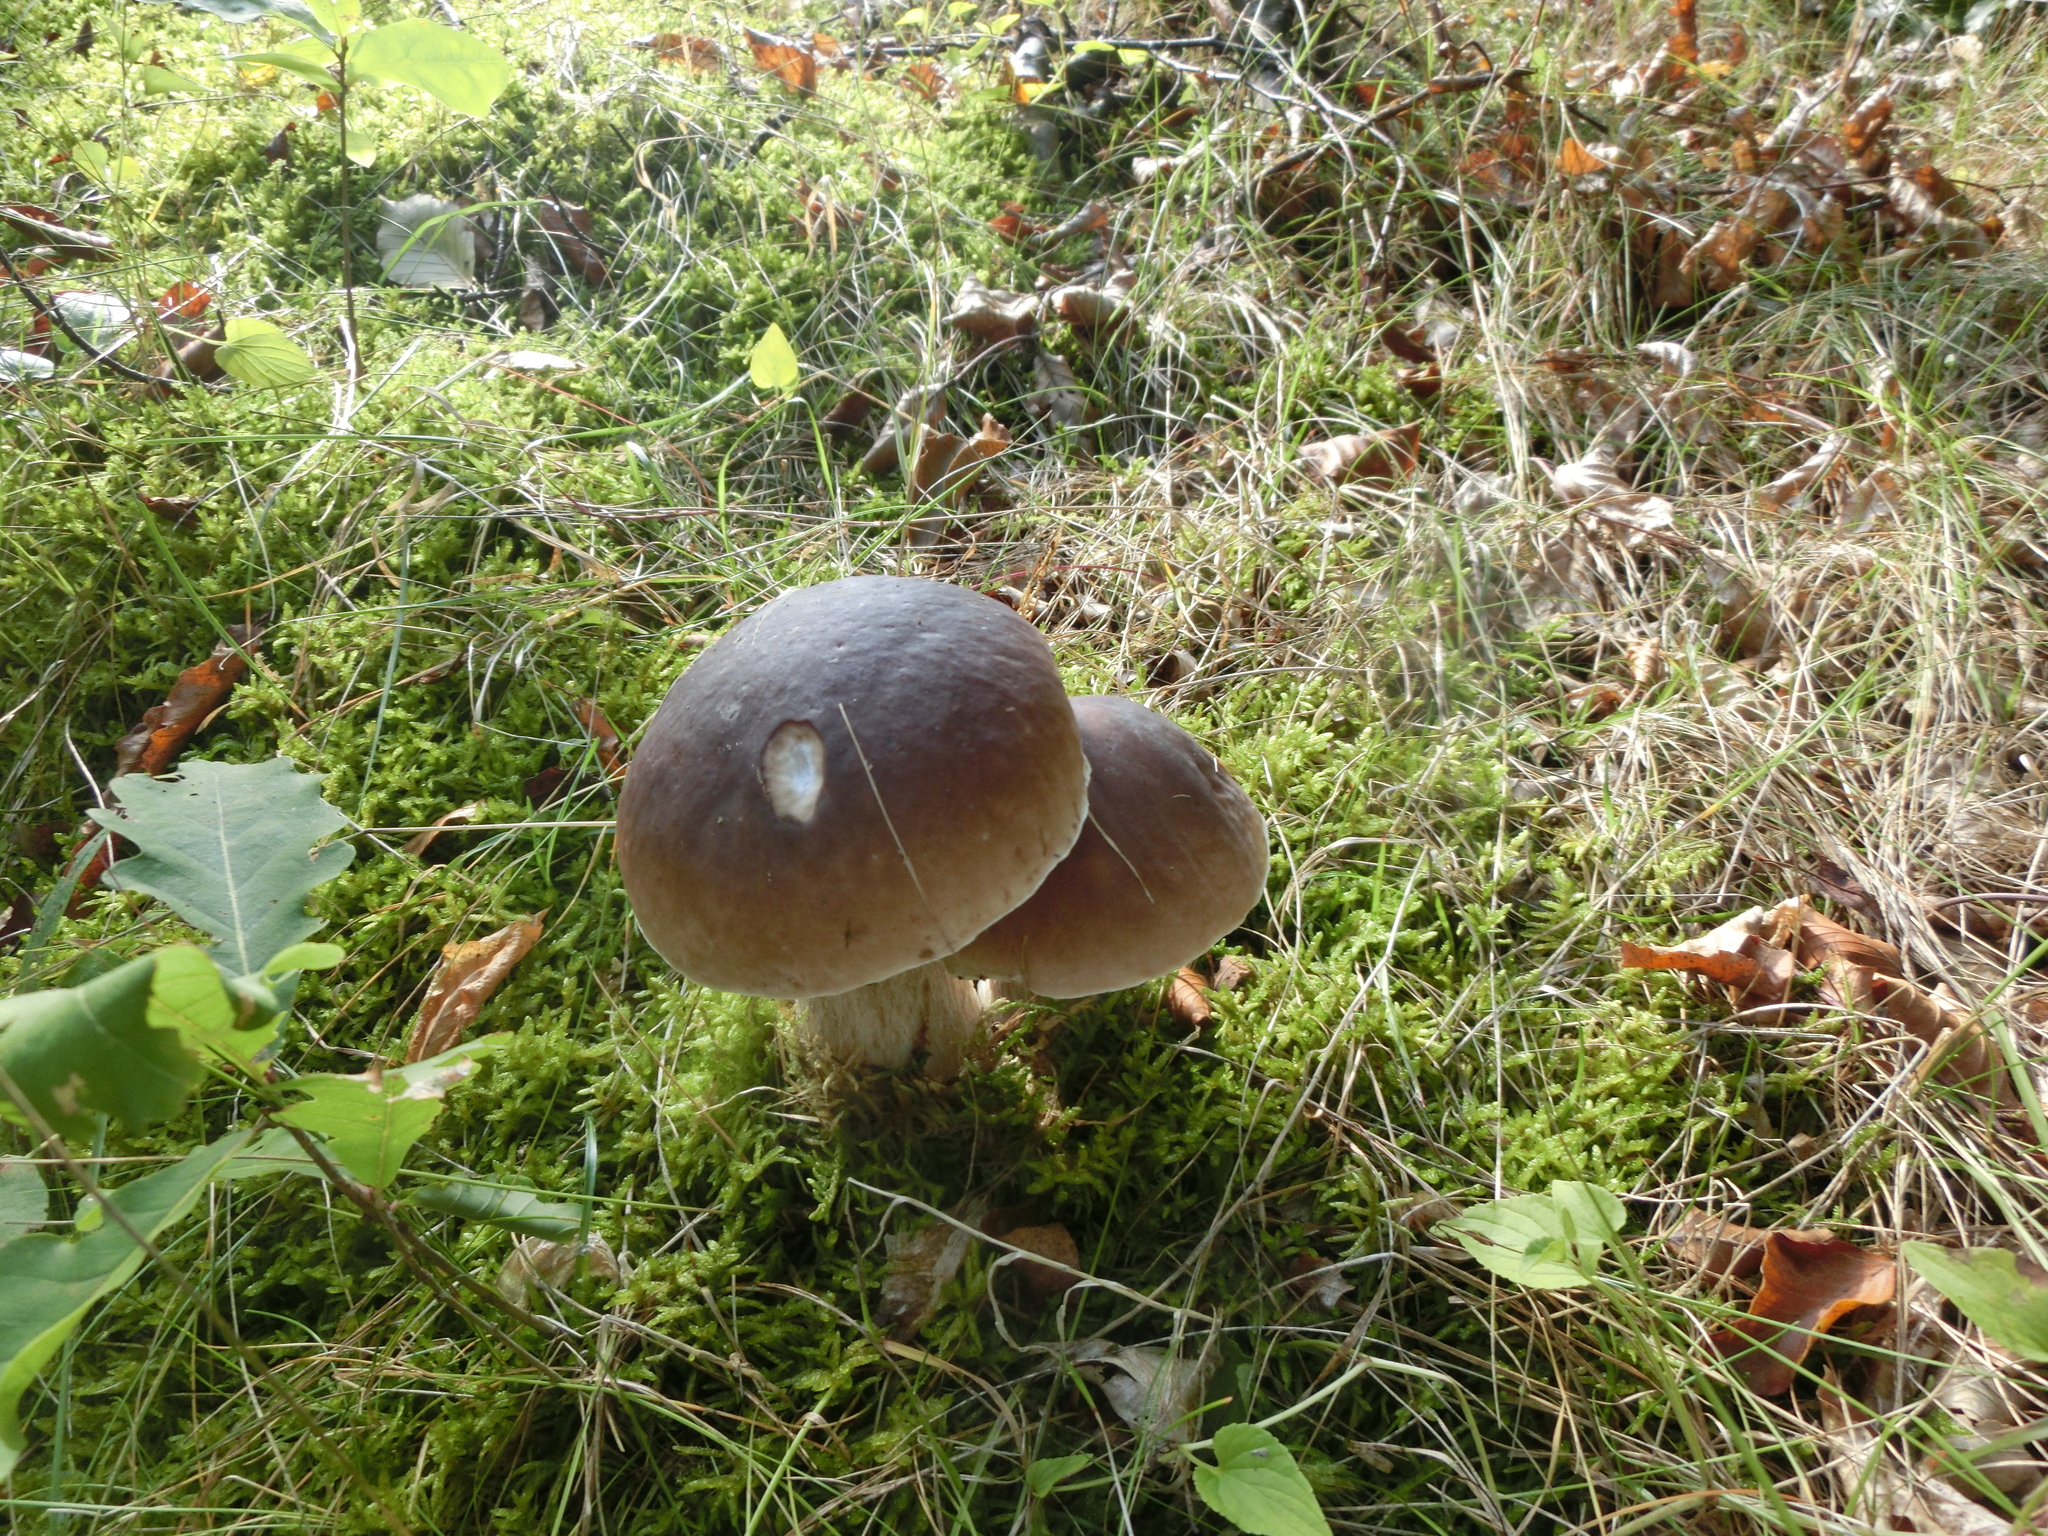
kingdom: Fungi
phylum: Basidiomycota
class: Agaricomycetes
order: Boletales
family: Boletaceae
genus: Boletus
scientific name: Boletus edulis
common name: Cep
